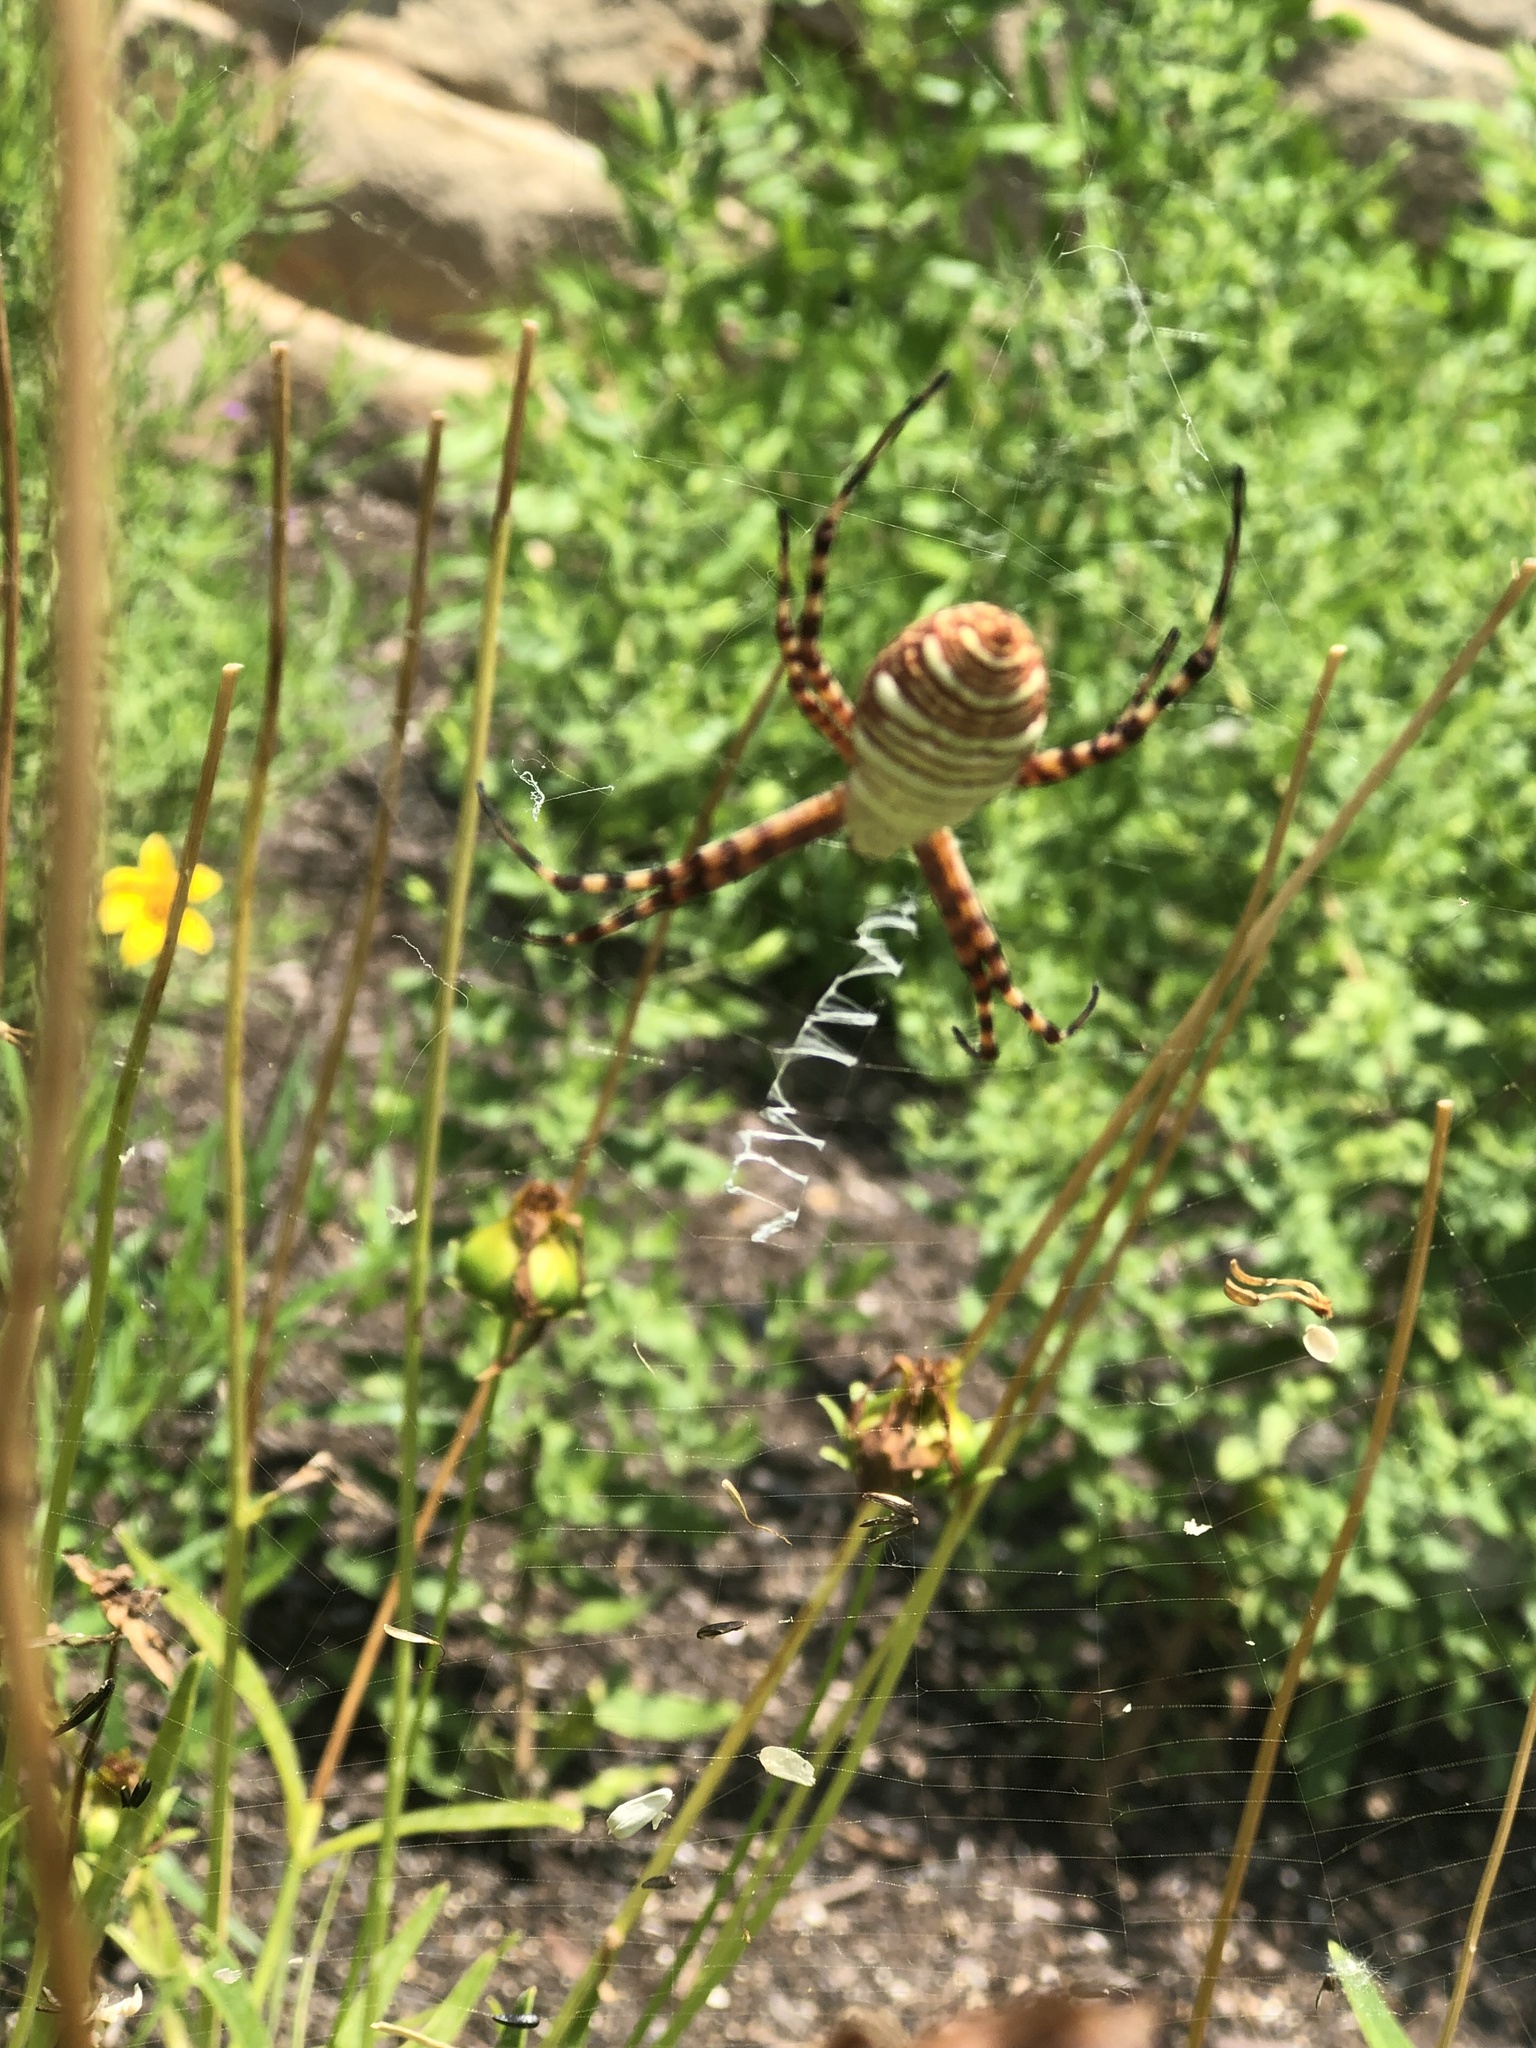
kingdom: Animalia
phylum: Arthropoda
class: Arachnida
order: Araneae
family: Araneidae
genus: Argiope
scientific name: Argiope trifasciata
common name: Banded garden spider
